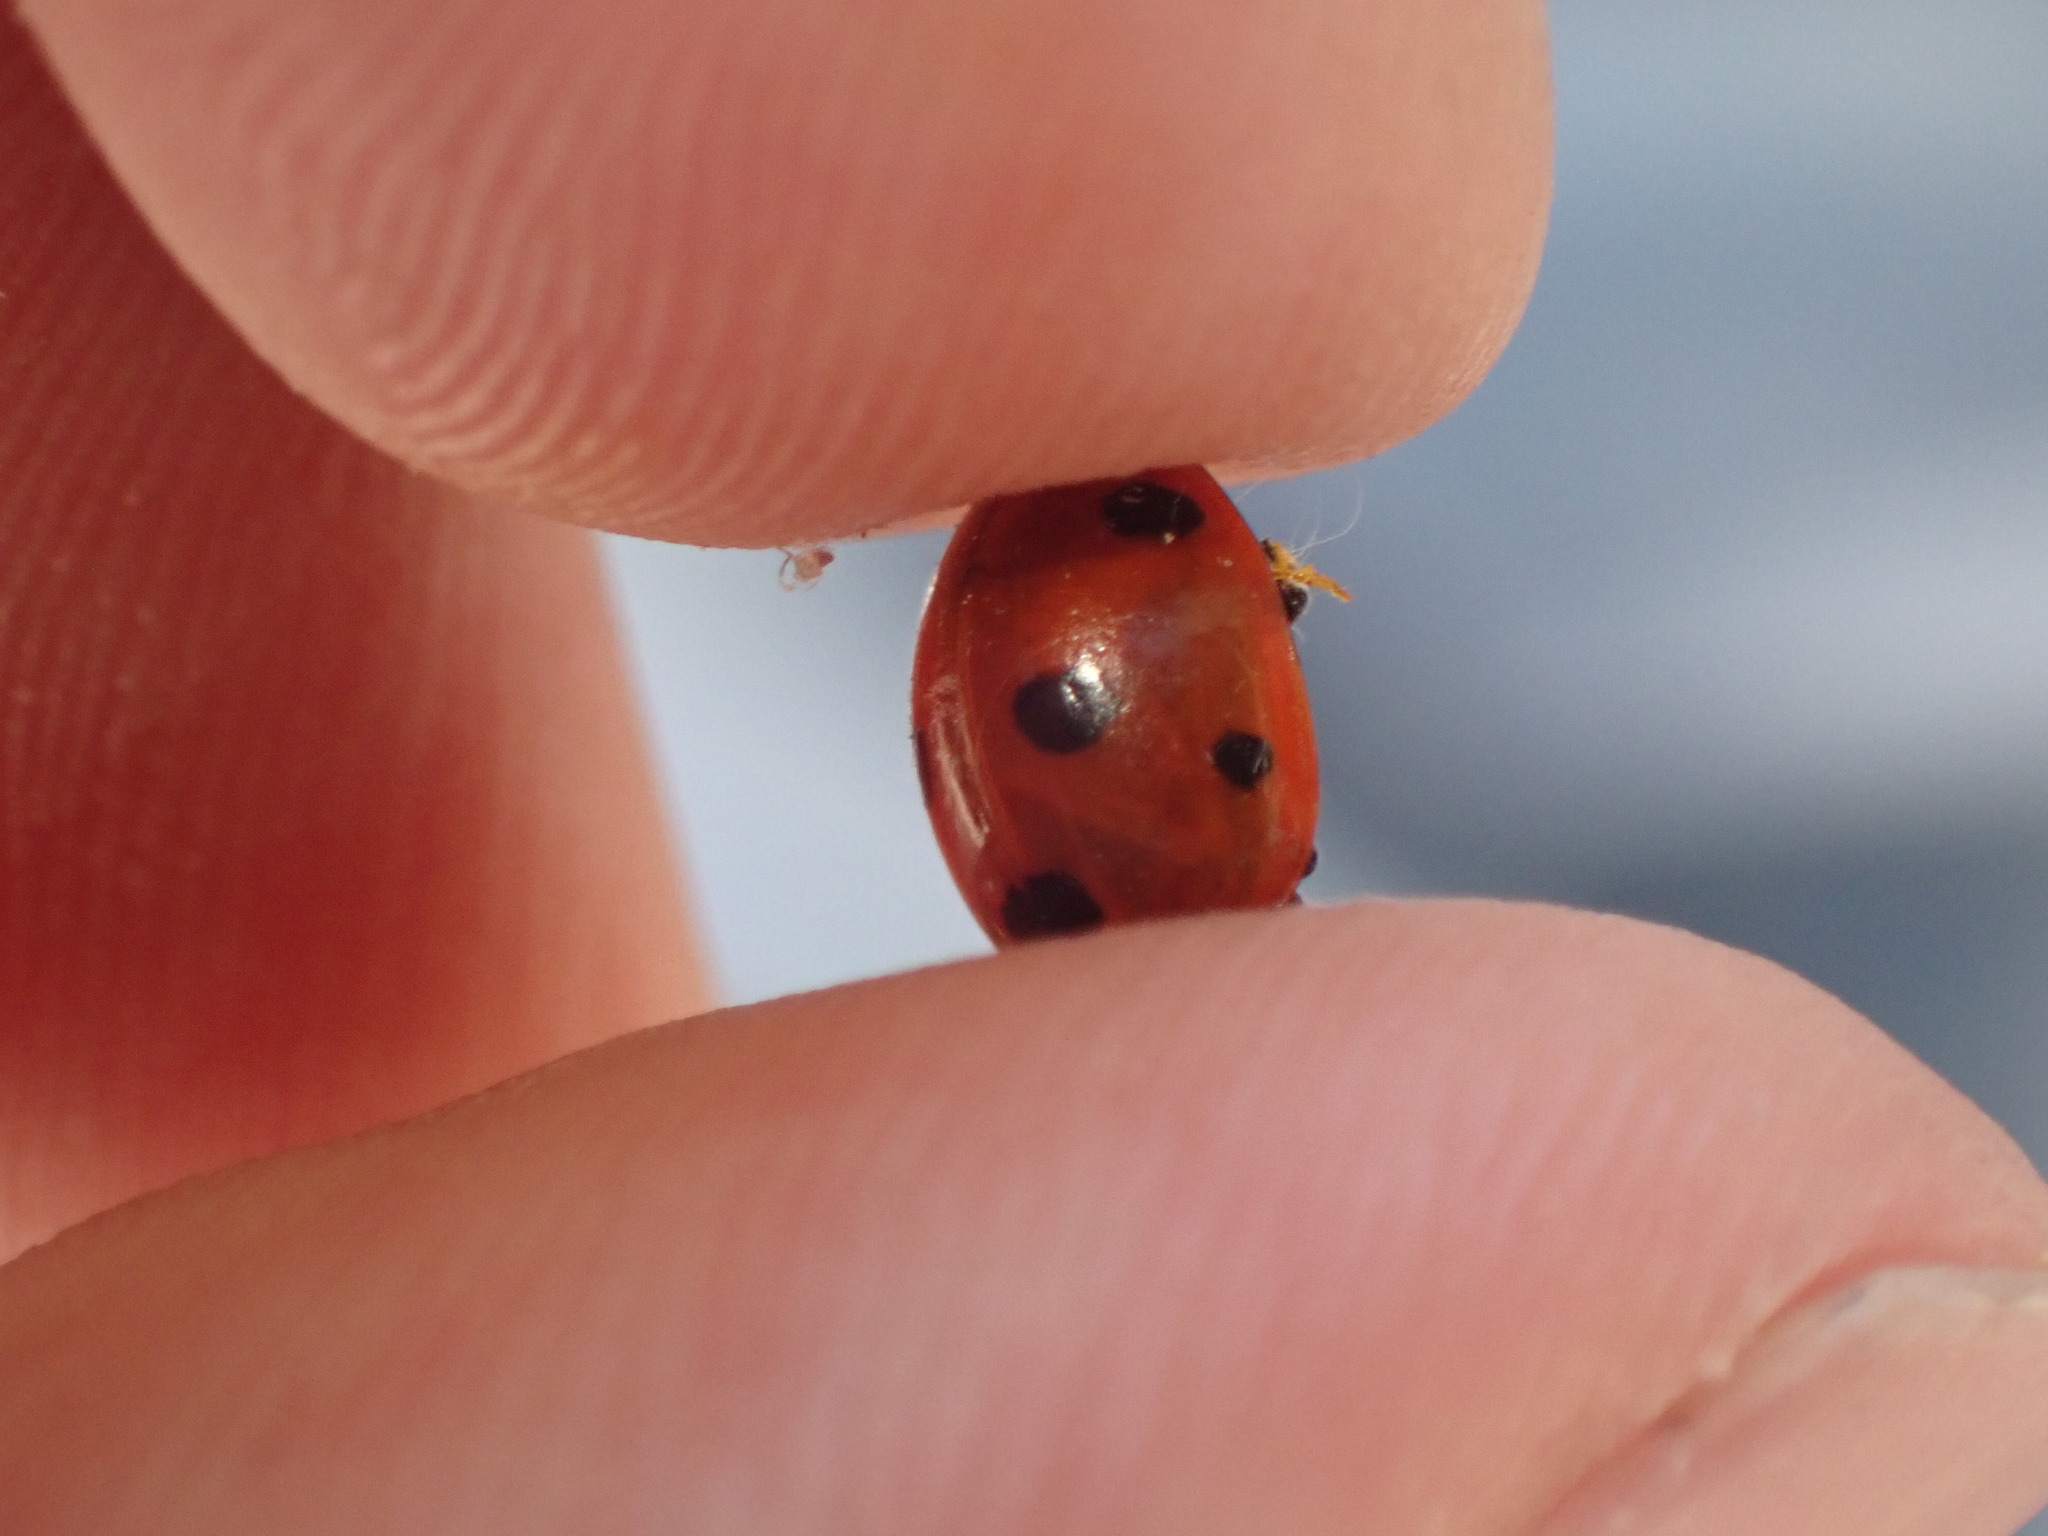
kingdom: Animalia
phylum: Arthropoda
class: Insecta
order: Coleoptera
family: Coccinellidae
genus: Coccinella
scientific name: Coccinella septempunctata
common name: Sevenspotted lady beetle
